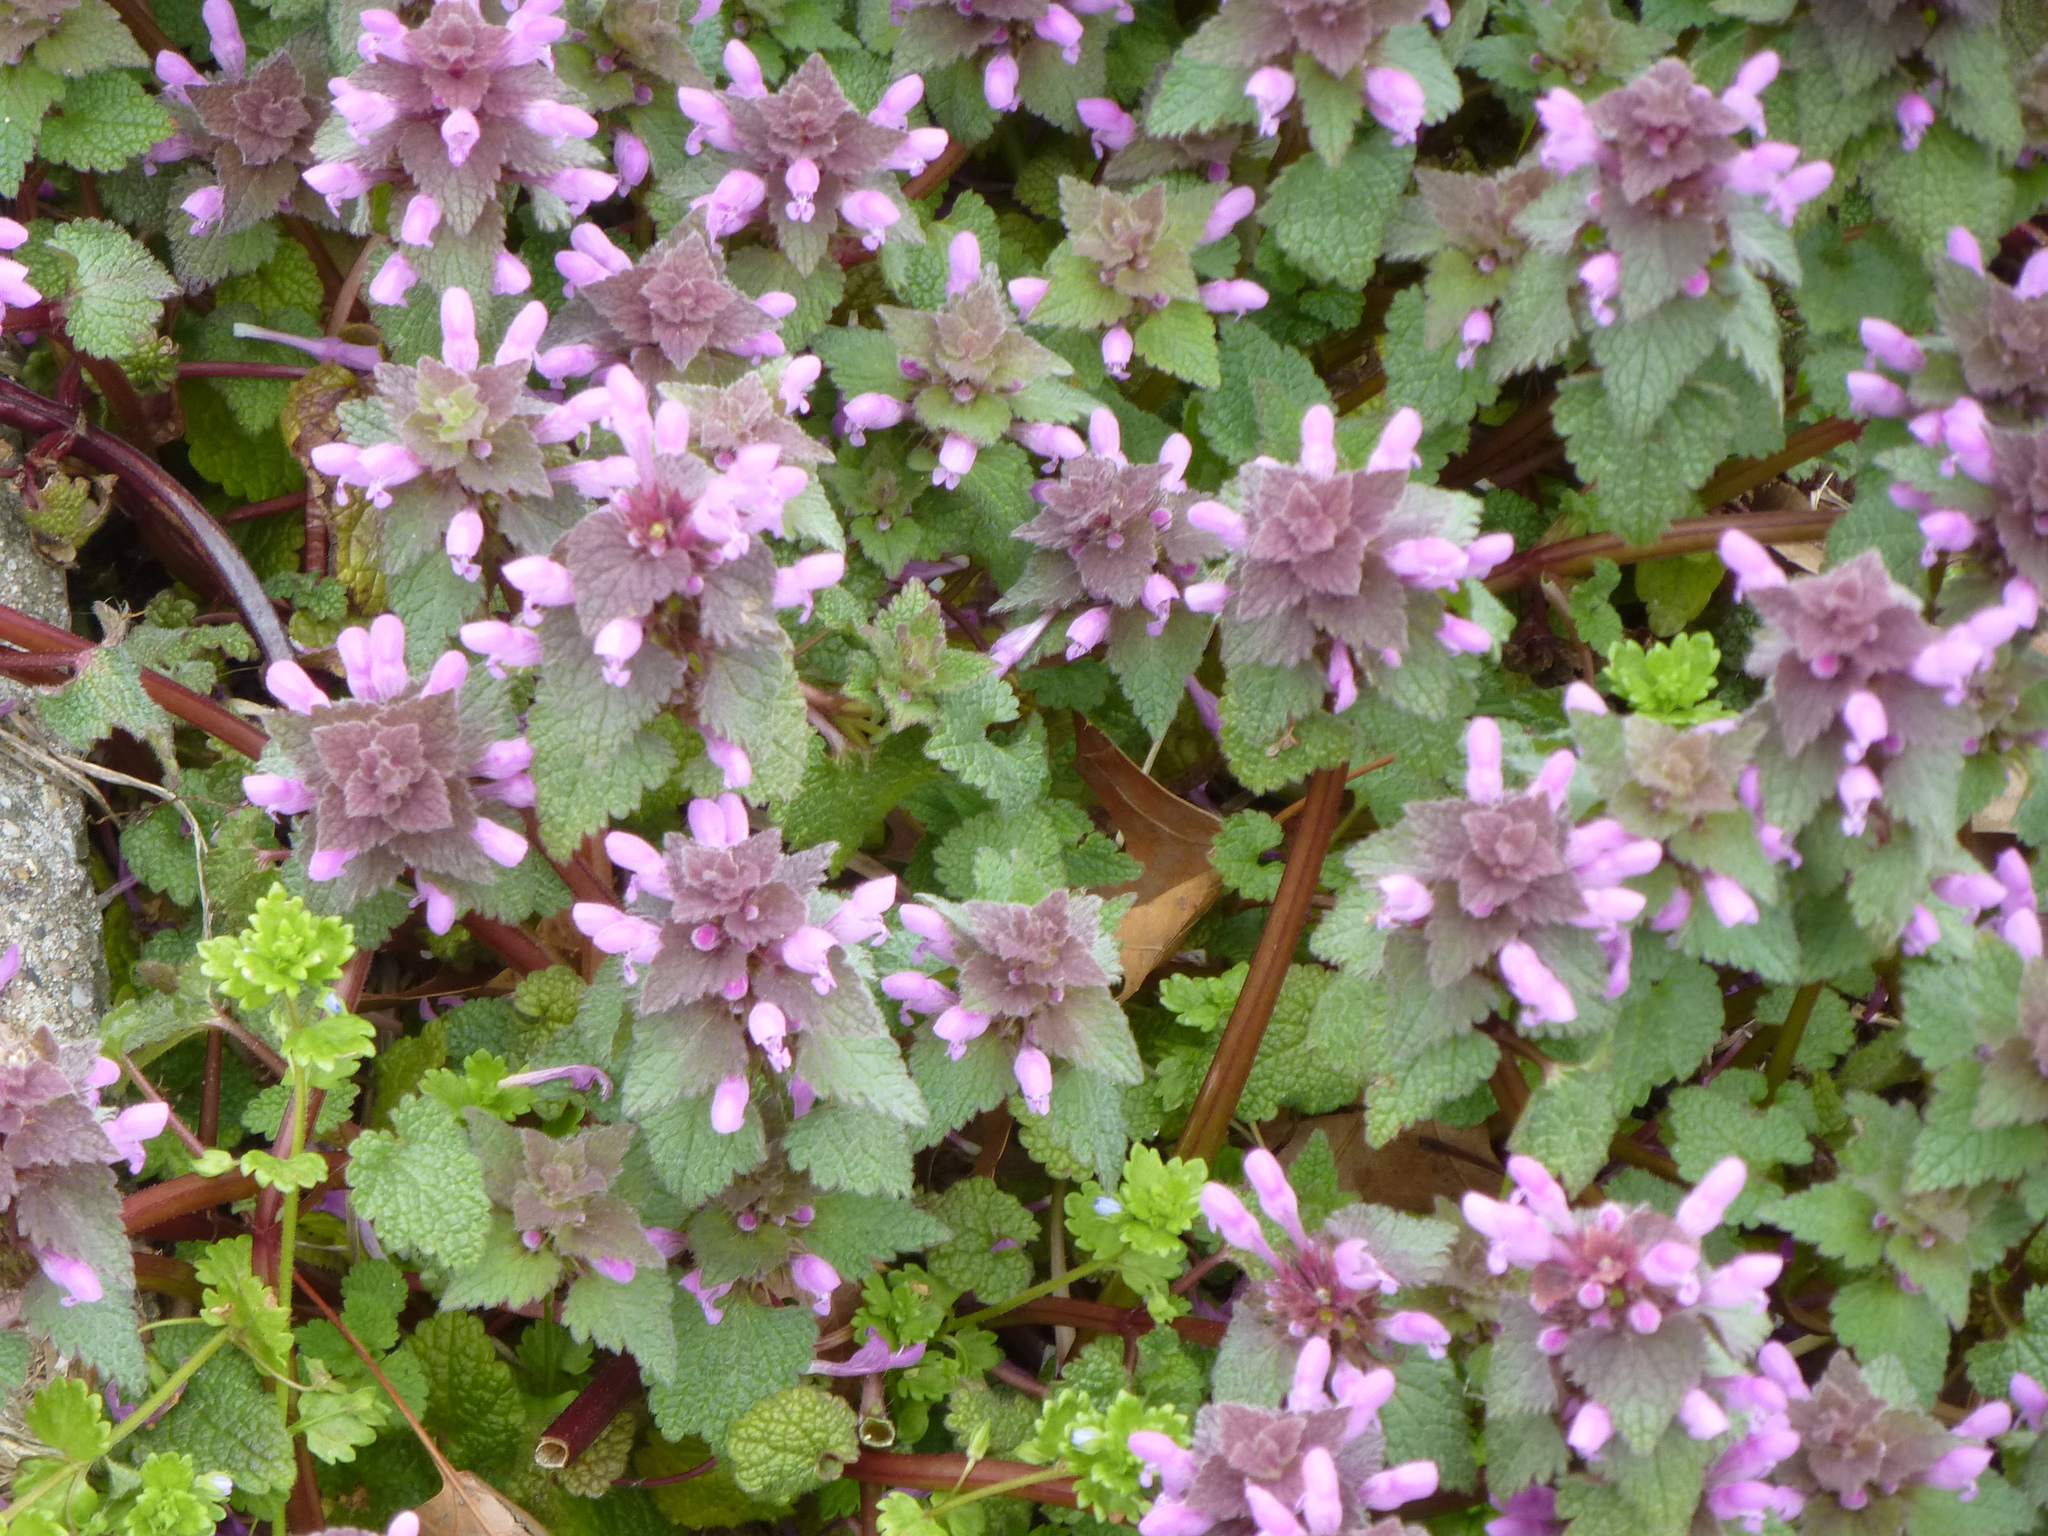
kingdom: Plantae
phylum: Tracheophyta
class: Magnoliopsida
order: Lamiales
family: Lamiaceae
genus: Lamium
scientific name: Lamium purpureum
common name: Red dead-nettle
